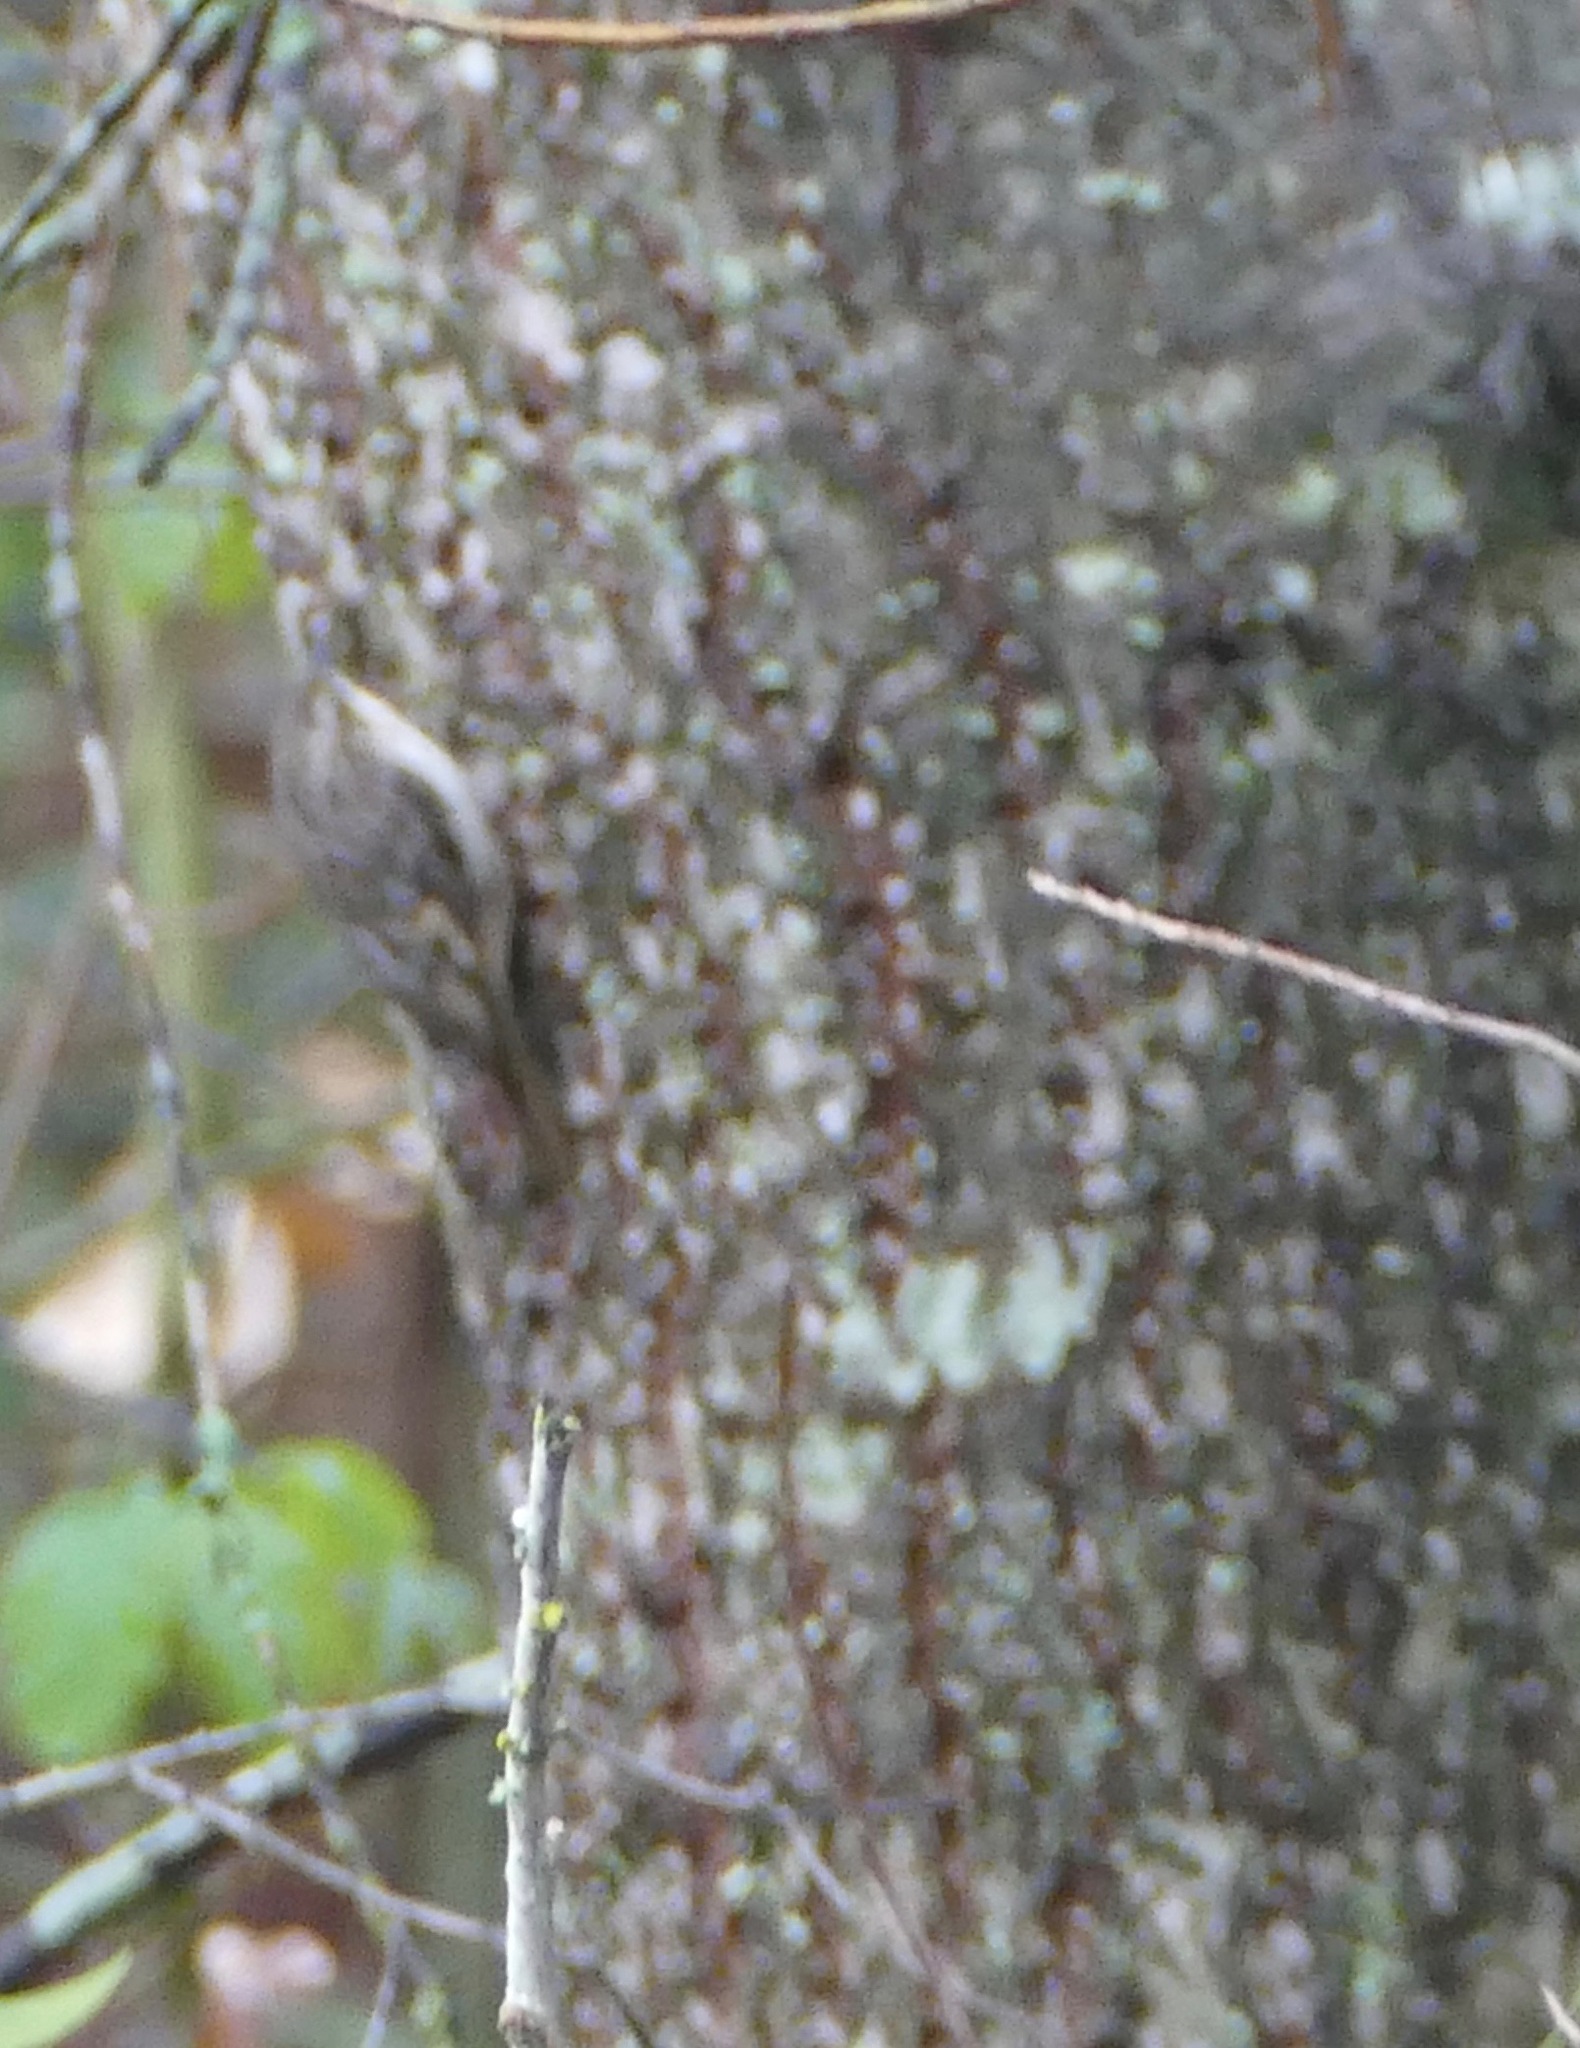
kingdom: Animalia
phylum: Chordata
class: Aves
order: Passeriformes
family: Certhiidae
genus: Certhia
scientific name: Certhia americana
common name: Brown creeper
